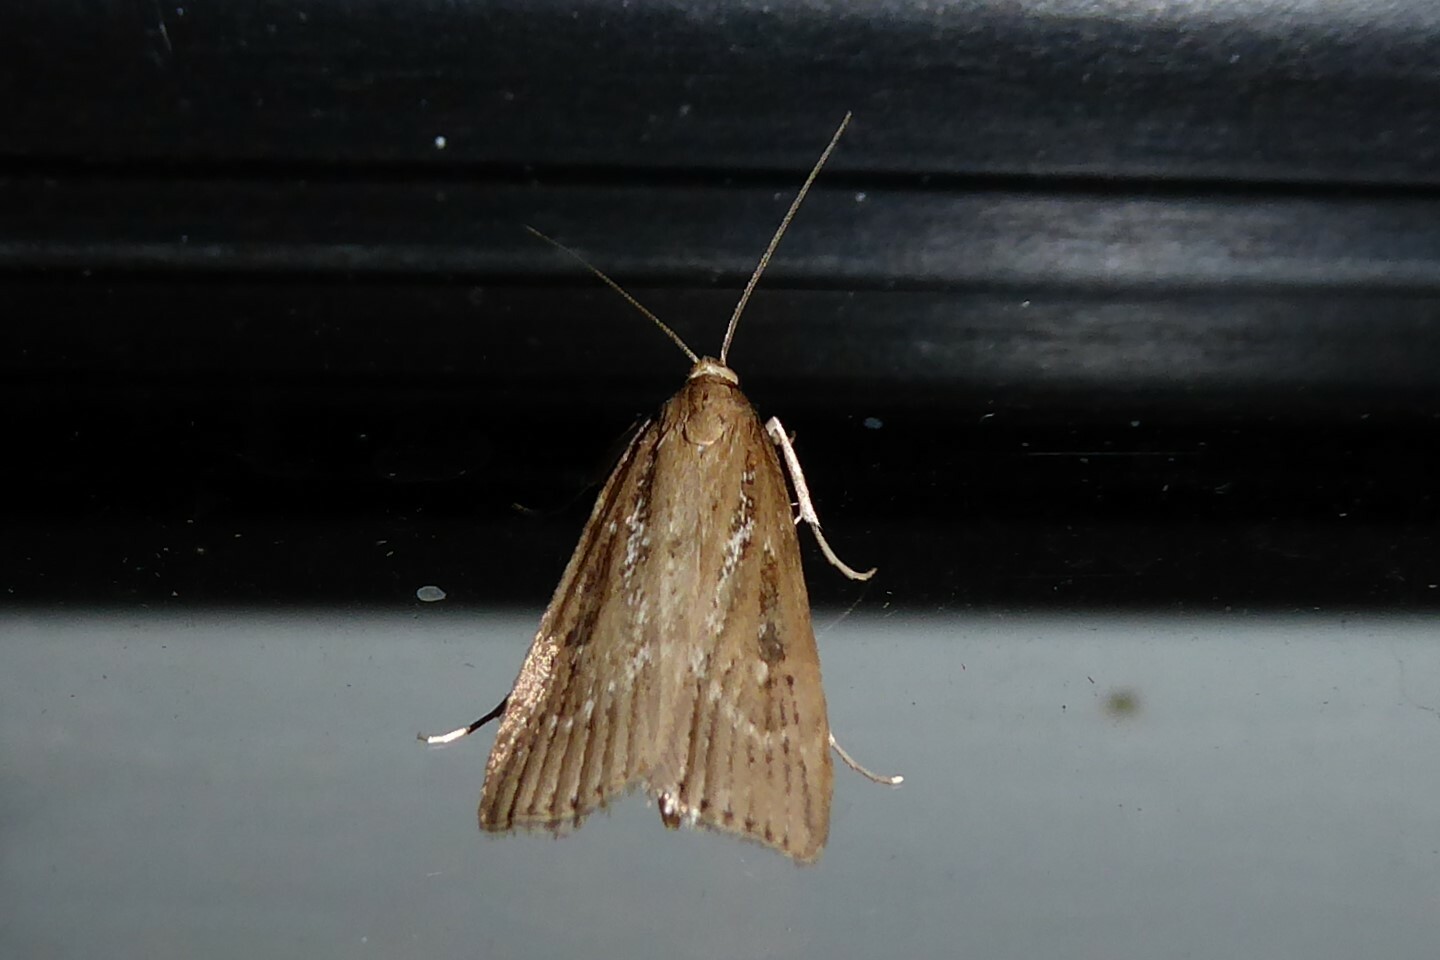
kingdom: Animalia
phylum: Arthropoda
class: Insecta
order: Lepidoptera
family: Crambidae
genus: Eudonia
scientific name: Eudonia octophora
